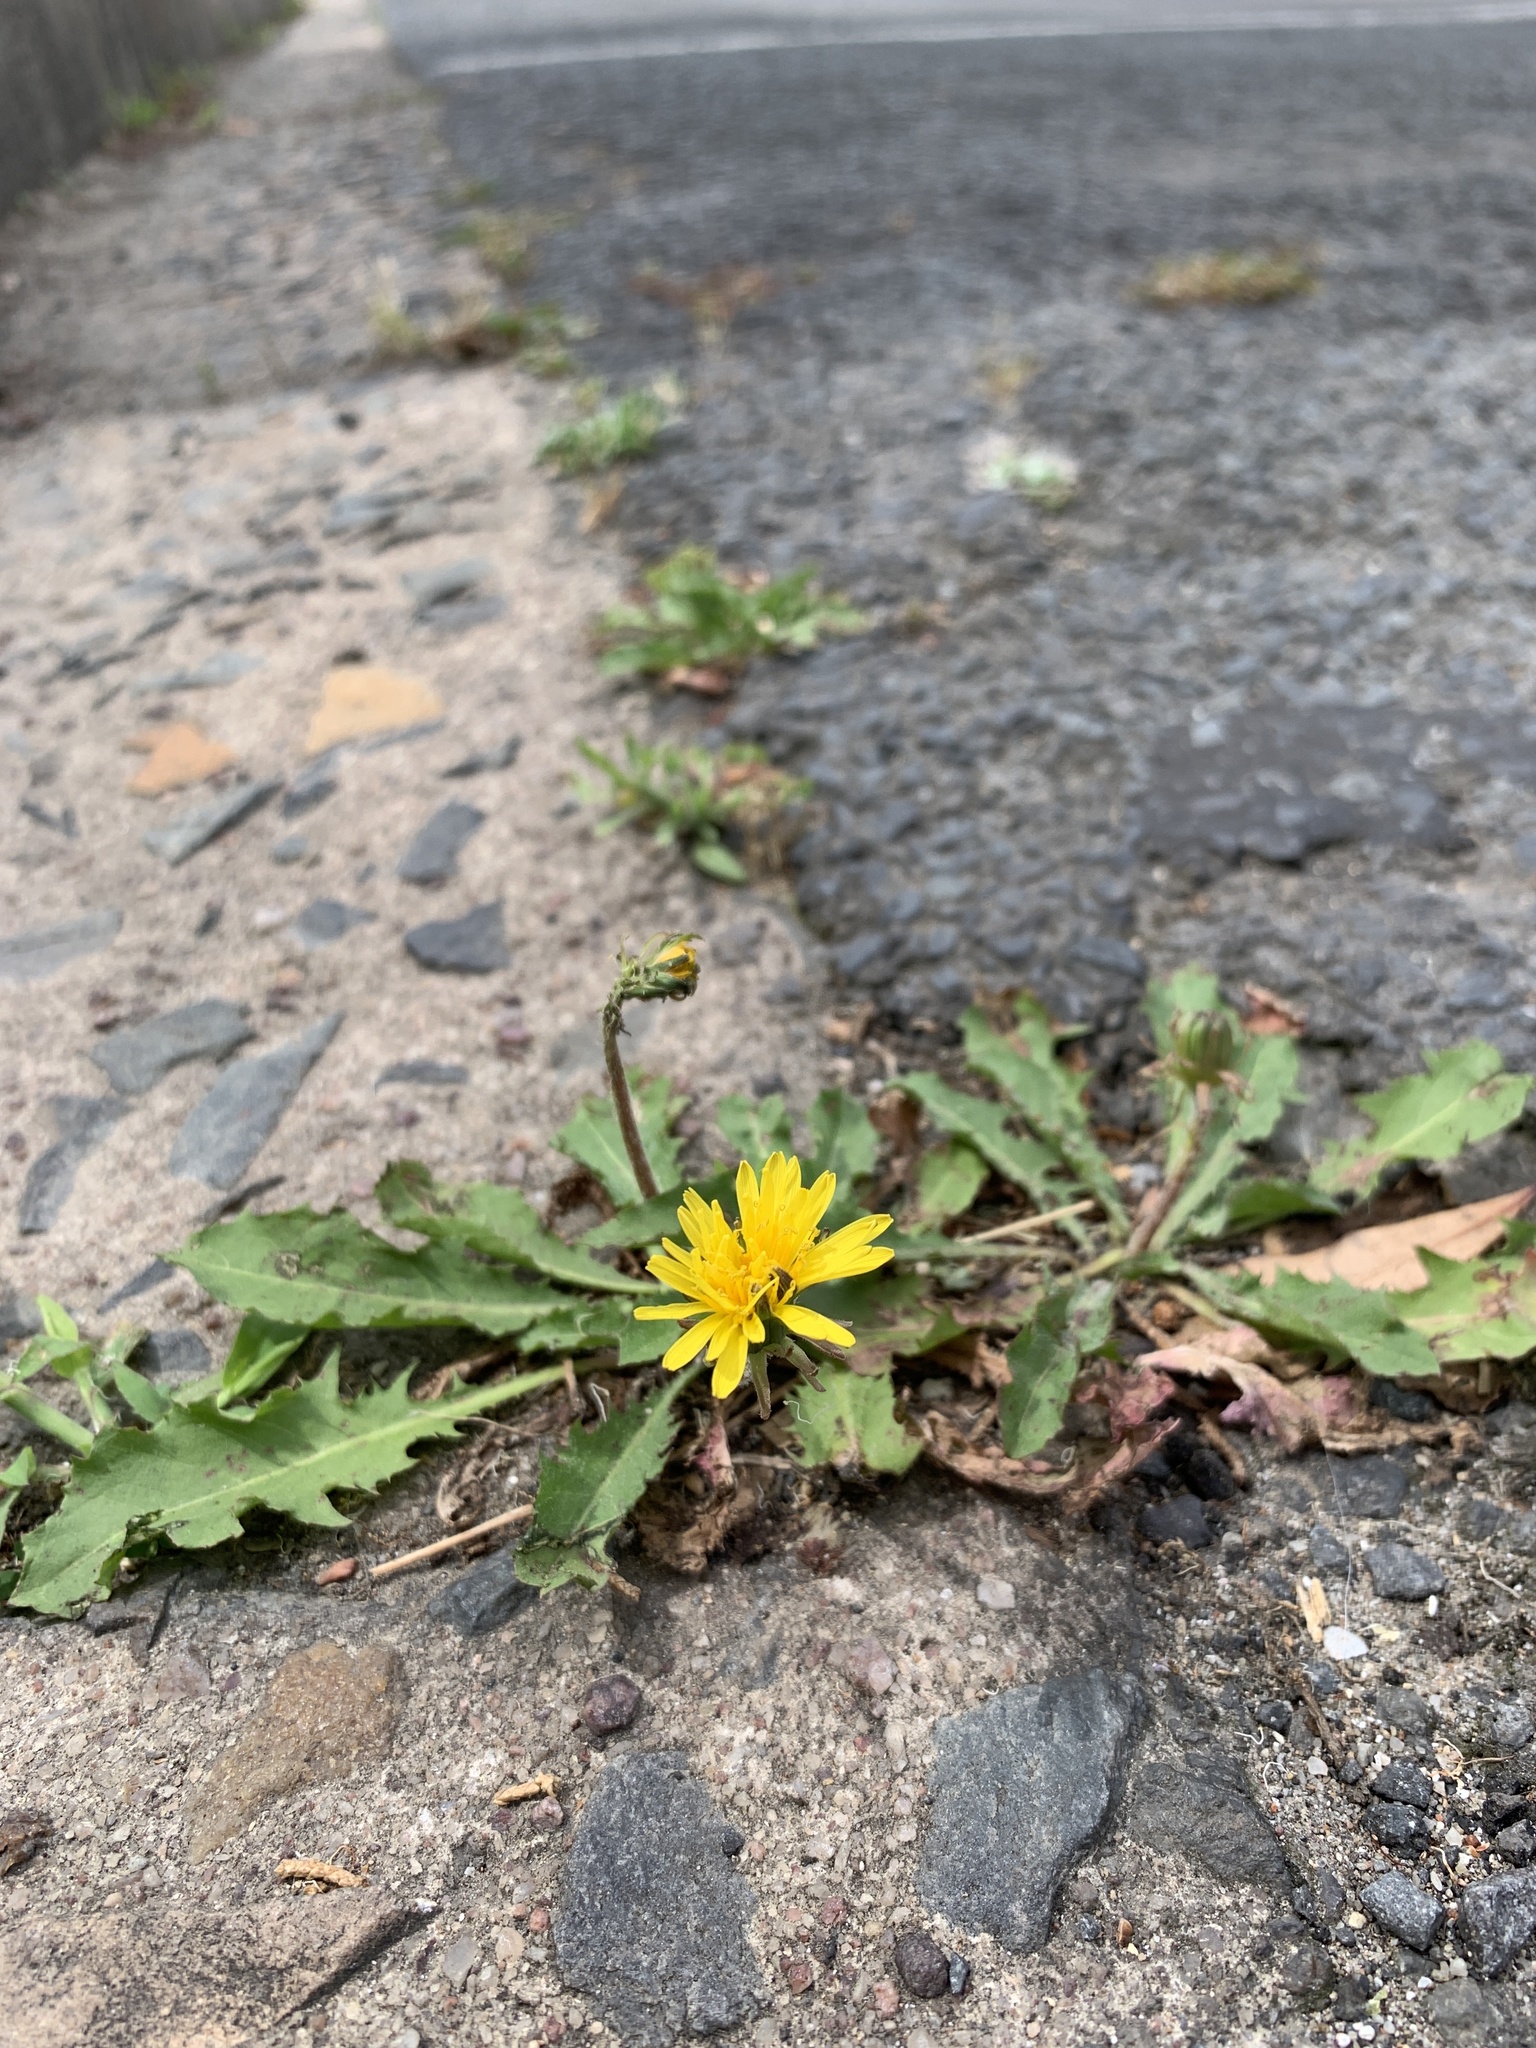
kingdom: Plantae
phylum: Tracheophyta
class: Magnoliopsida
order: Asterales
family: Asteraceae
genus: Taraxacum
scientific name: Taraxacum officinale
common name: Common dandelion
